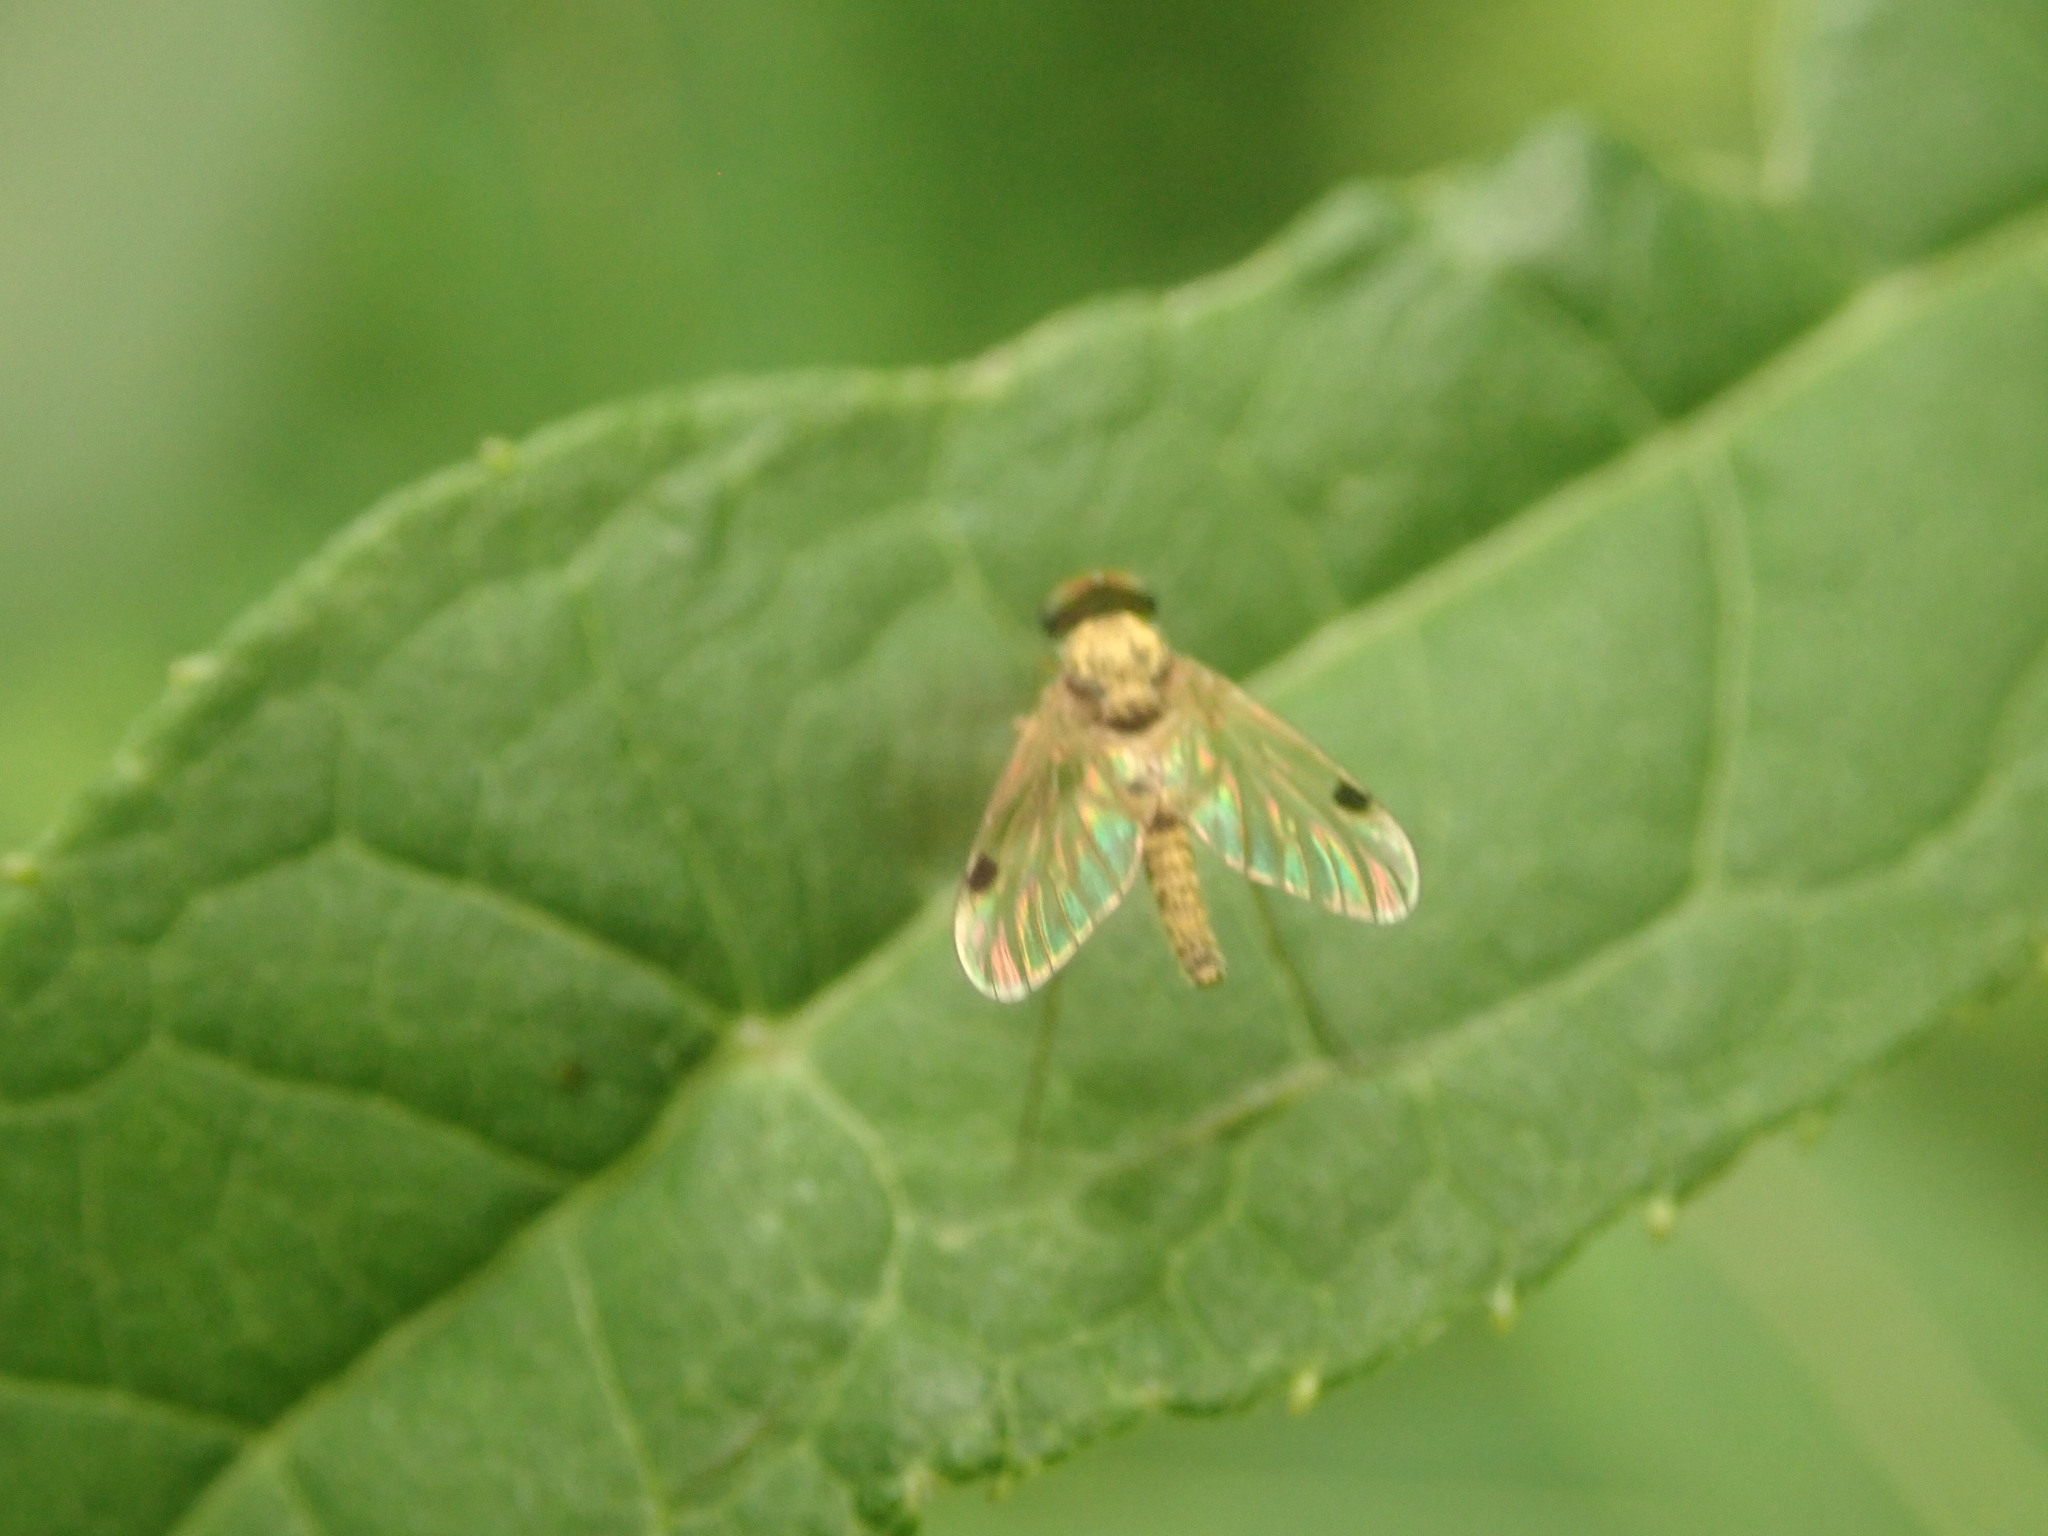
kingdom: Animalia
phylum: Arthropoda
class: Insecta
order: Diptera
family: Rhagionidae
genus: Chrysopilus
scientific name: Chrysopilus modestus
